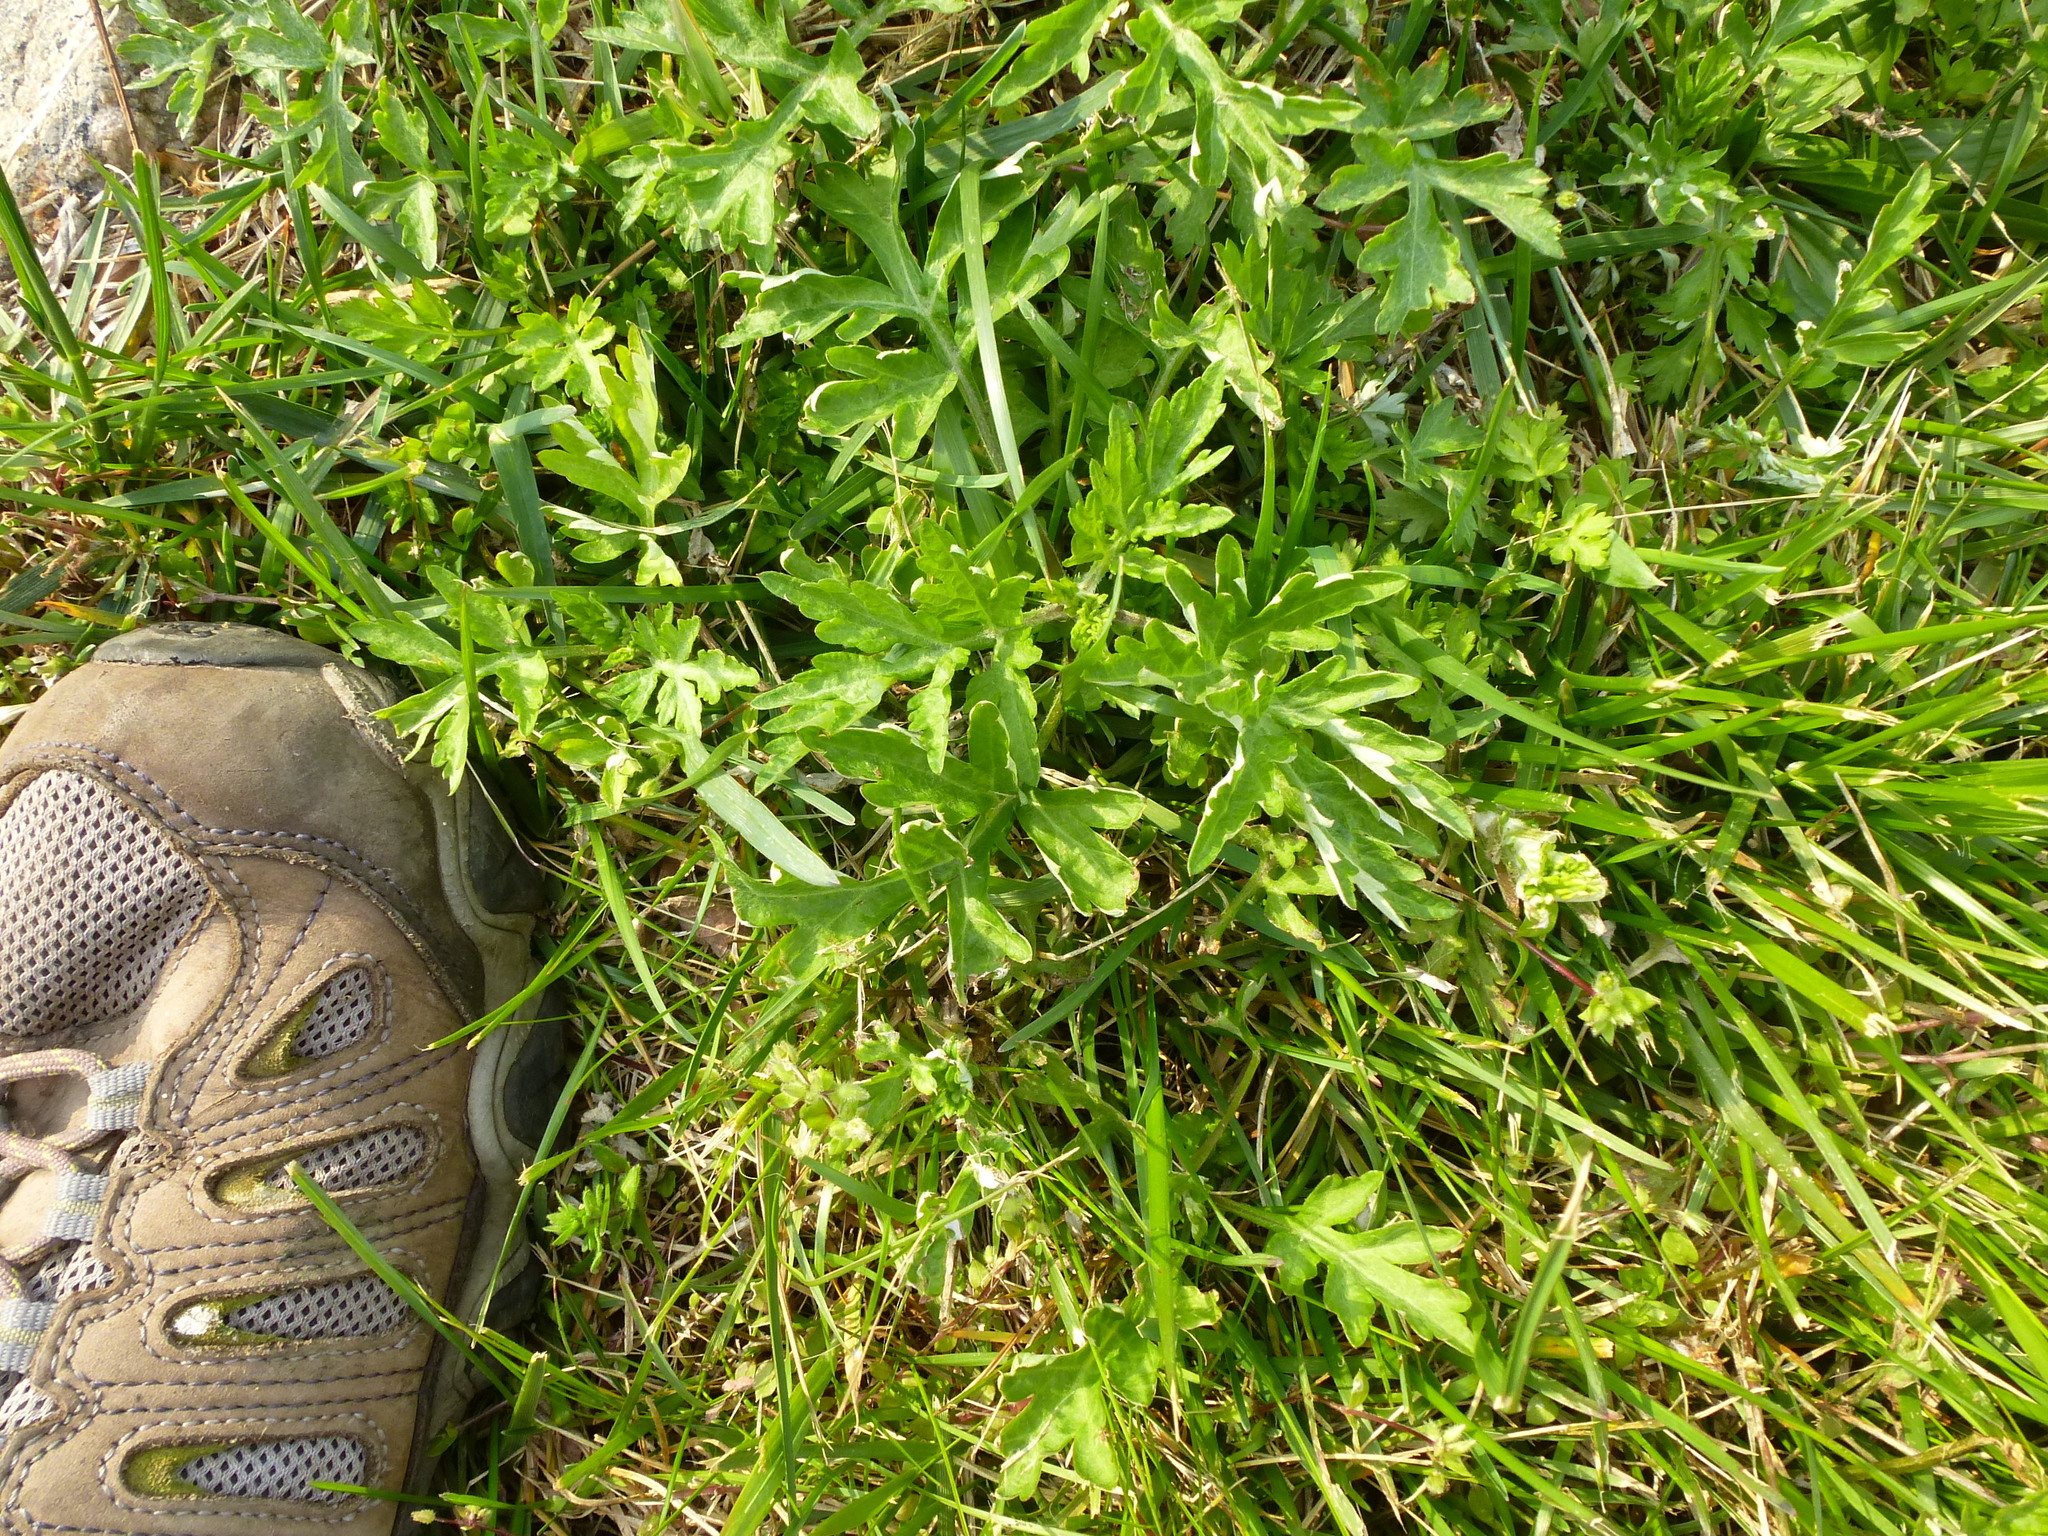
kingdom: Plantae
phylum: Tracheophyta
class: Magnoliopsida
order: Asterales
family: Asteraceae
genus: Artemisia
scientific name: Artemisia vulgaris
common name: Mugwort
